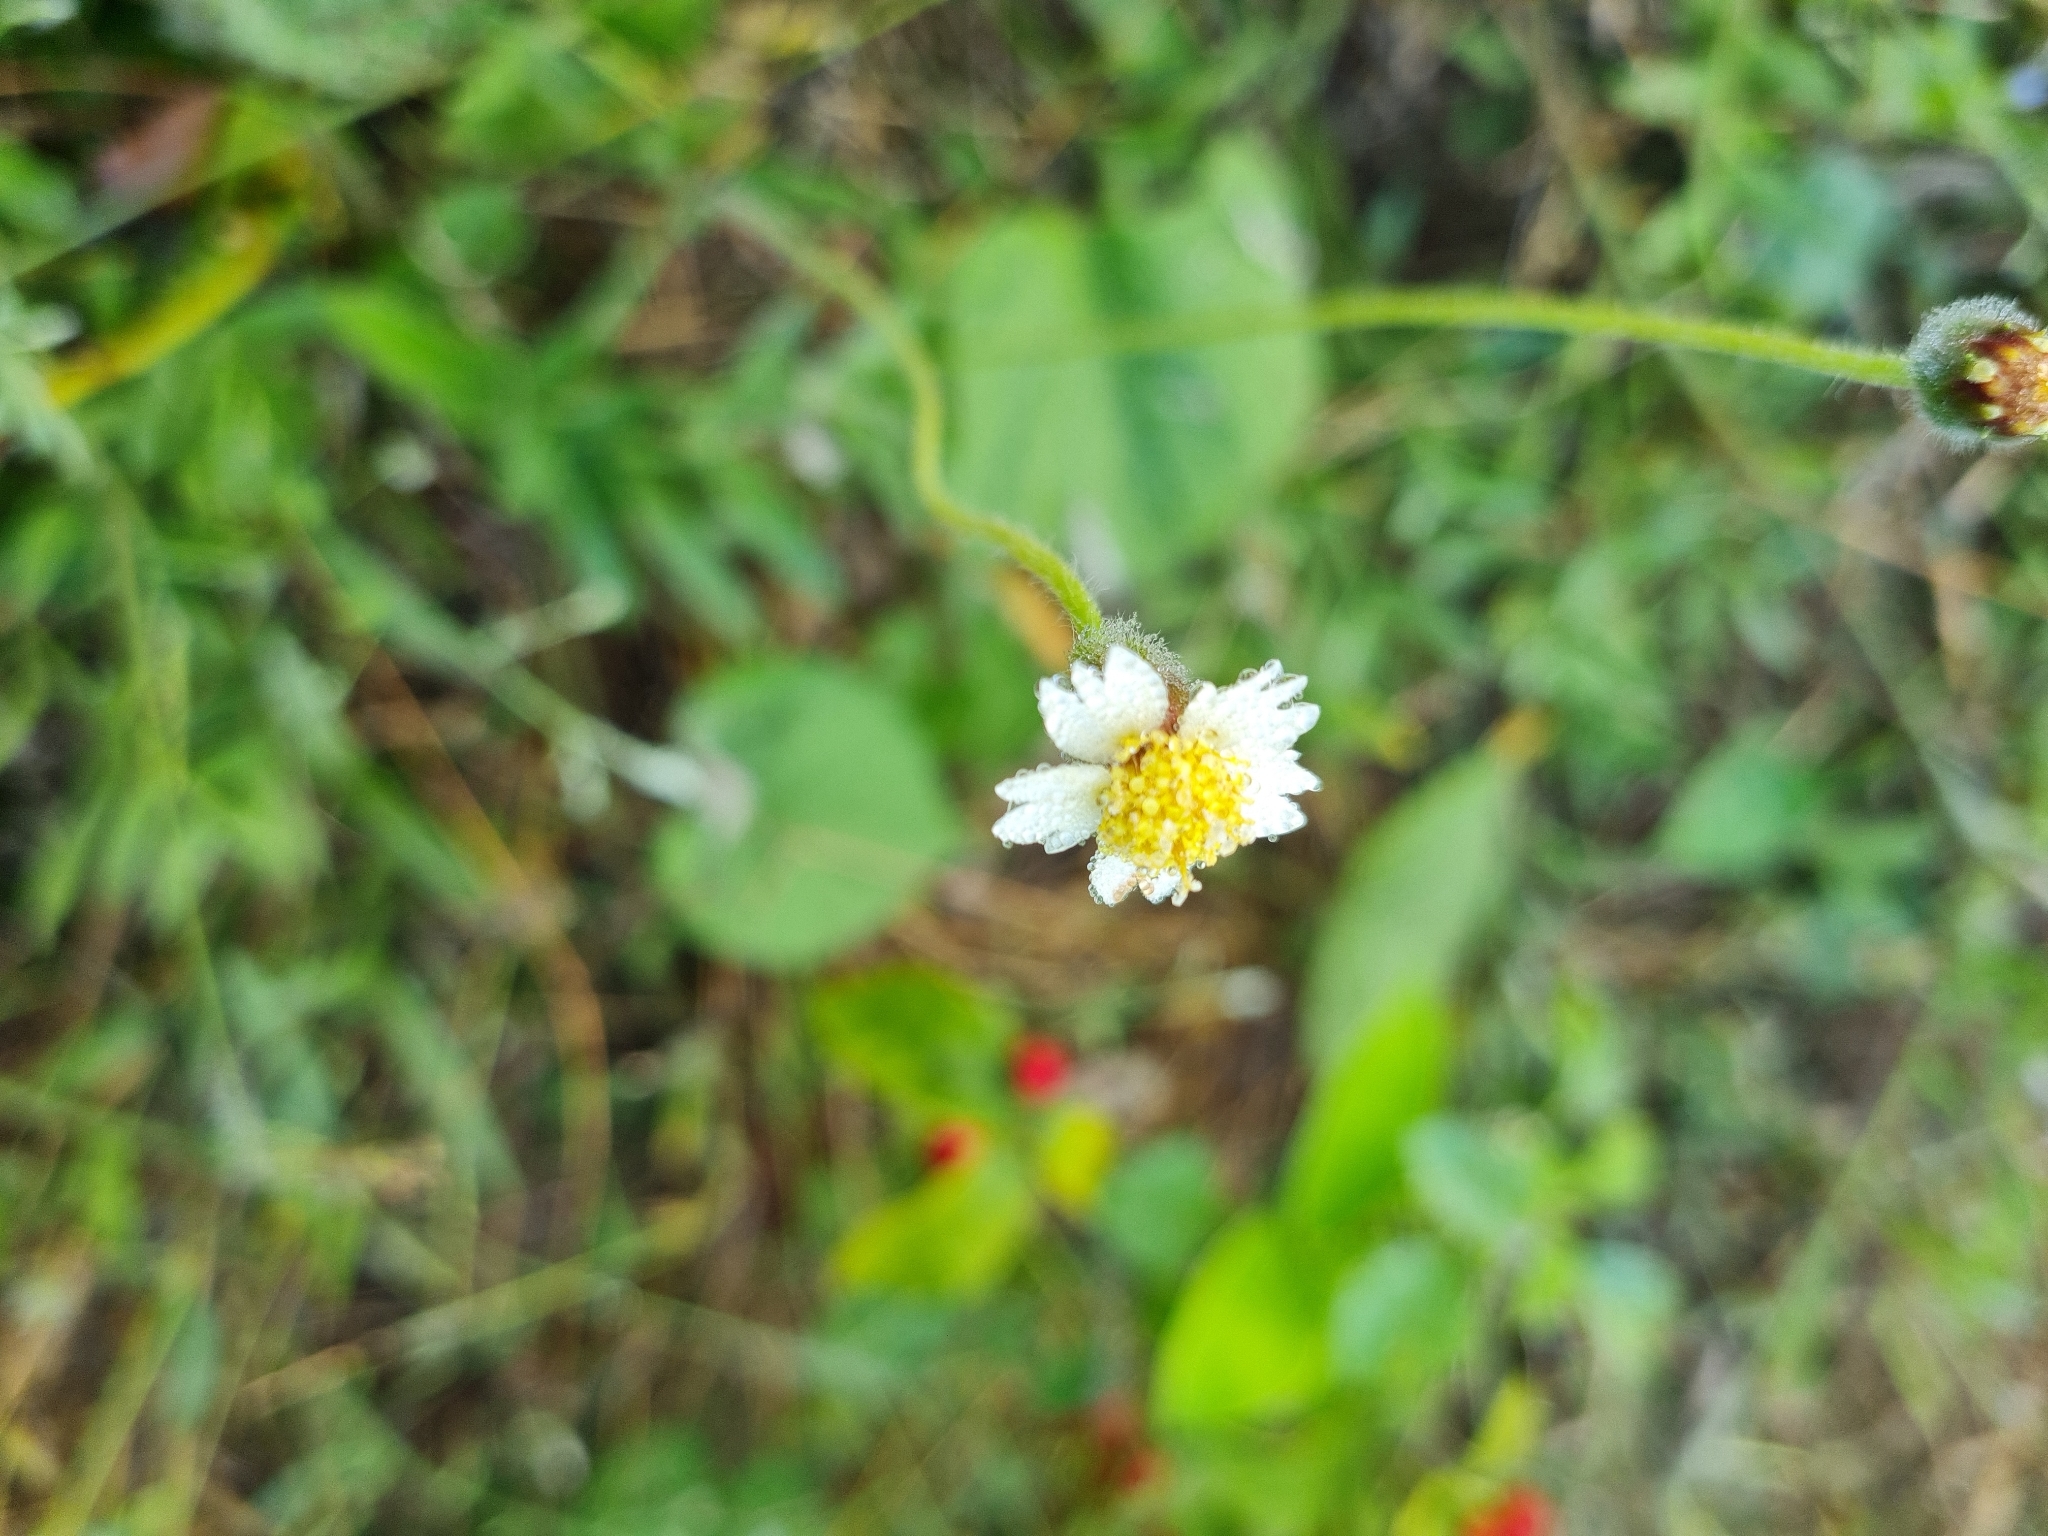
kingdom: Plantae
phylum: Tracheophyta
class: Magnoliopsida
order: Asterales
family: Asteraceae
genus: Tridax
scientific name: Tridax procumbens
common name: Coatbuttons
